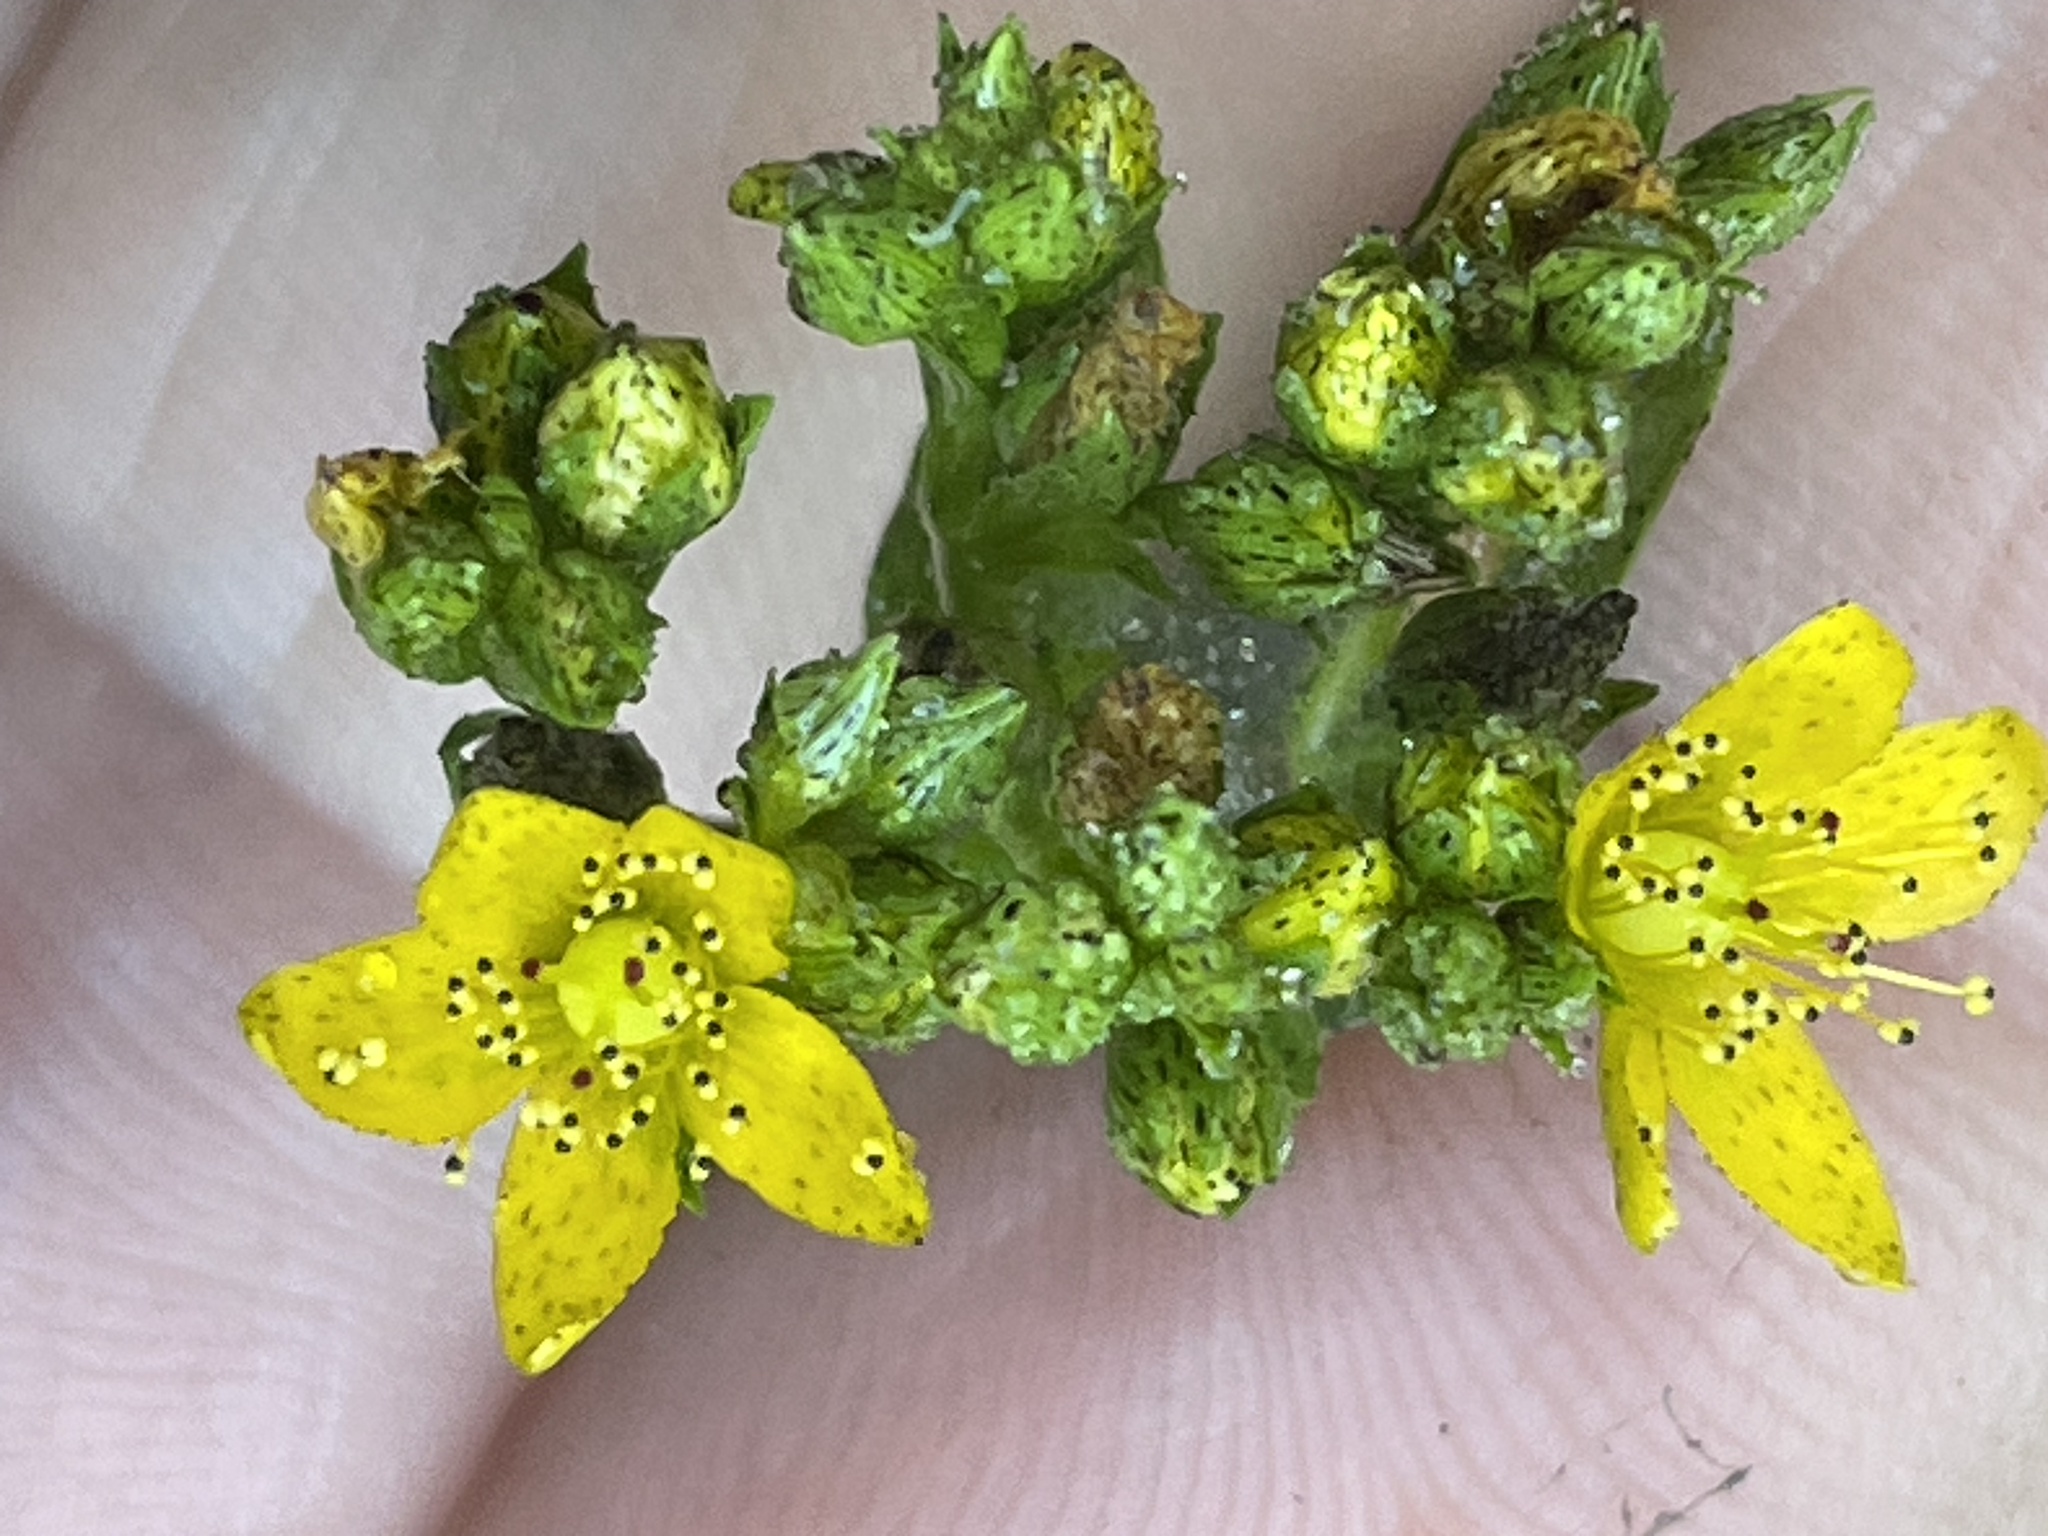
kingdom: Plantae
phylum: Tracheophyta
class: Magnoliopsida
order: Malpighiales
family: Hypericaceae
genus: Hypericum
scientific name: Hypericum punctatum
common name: Spotted st. john's-wort
